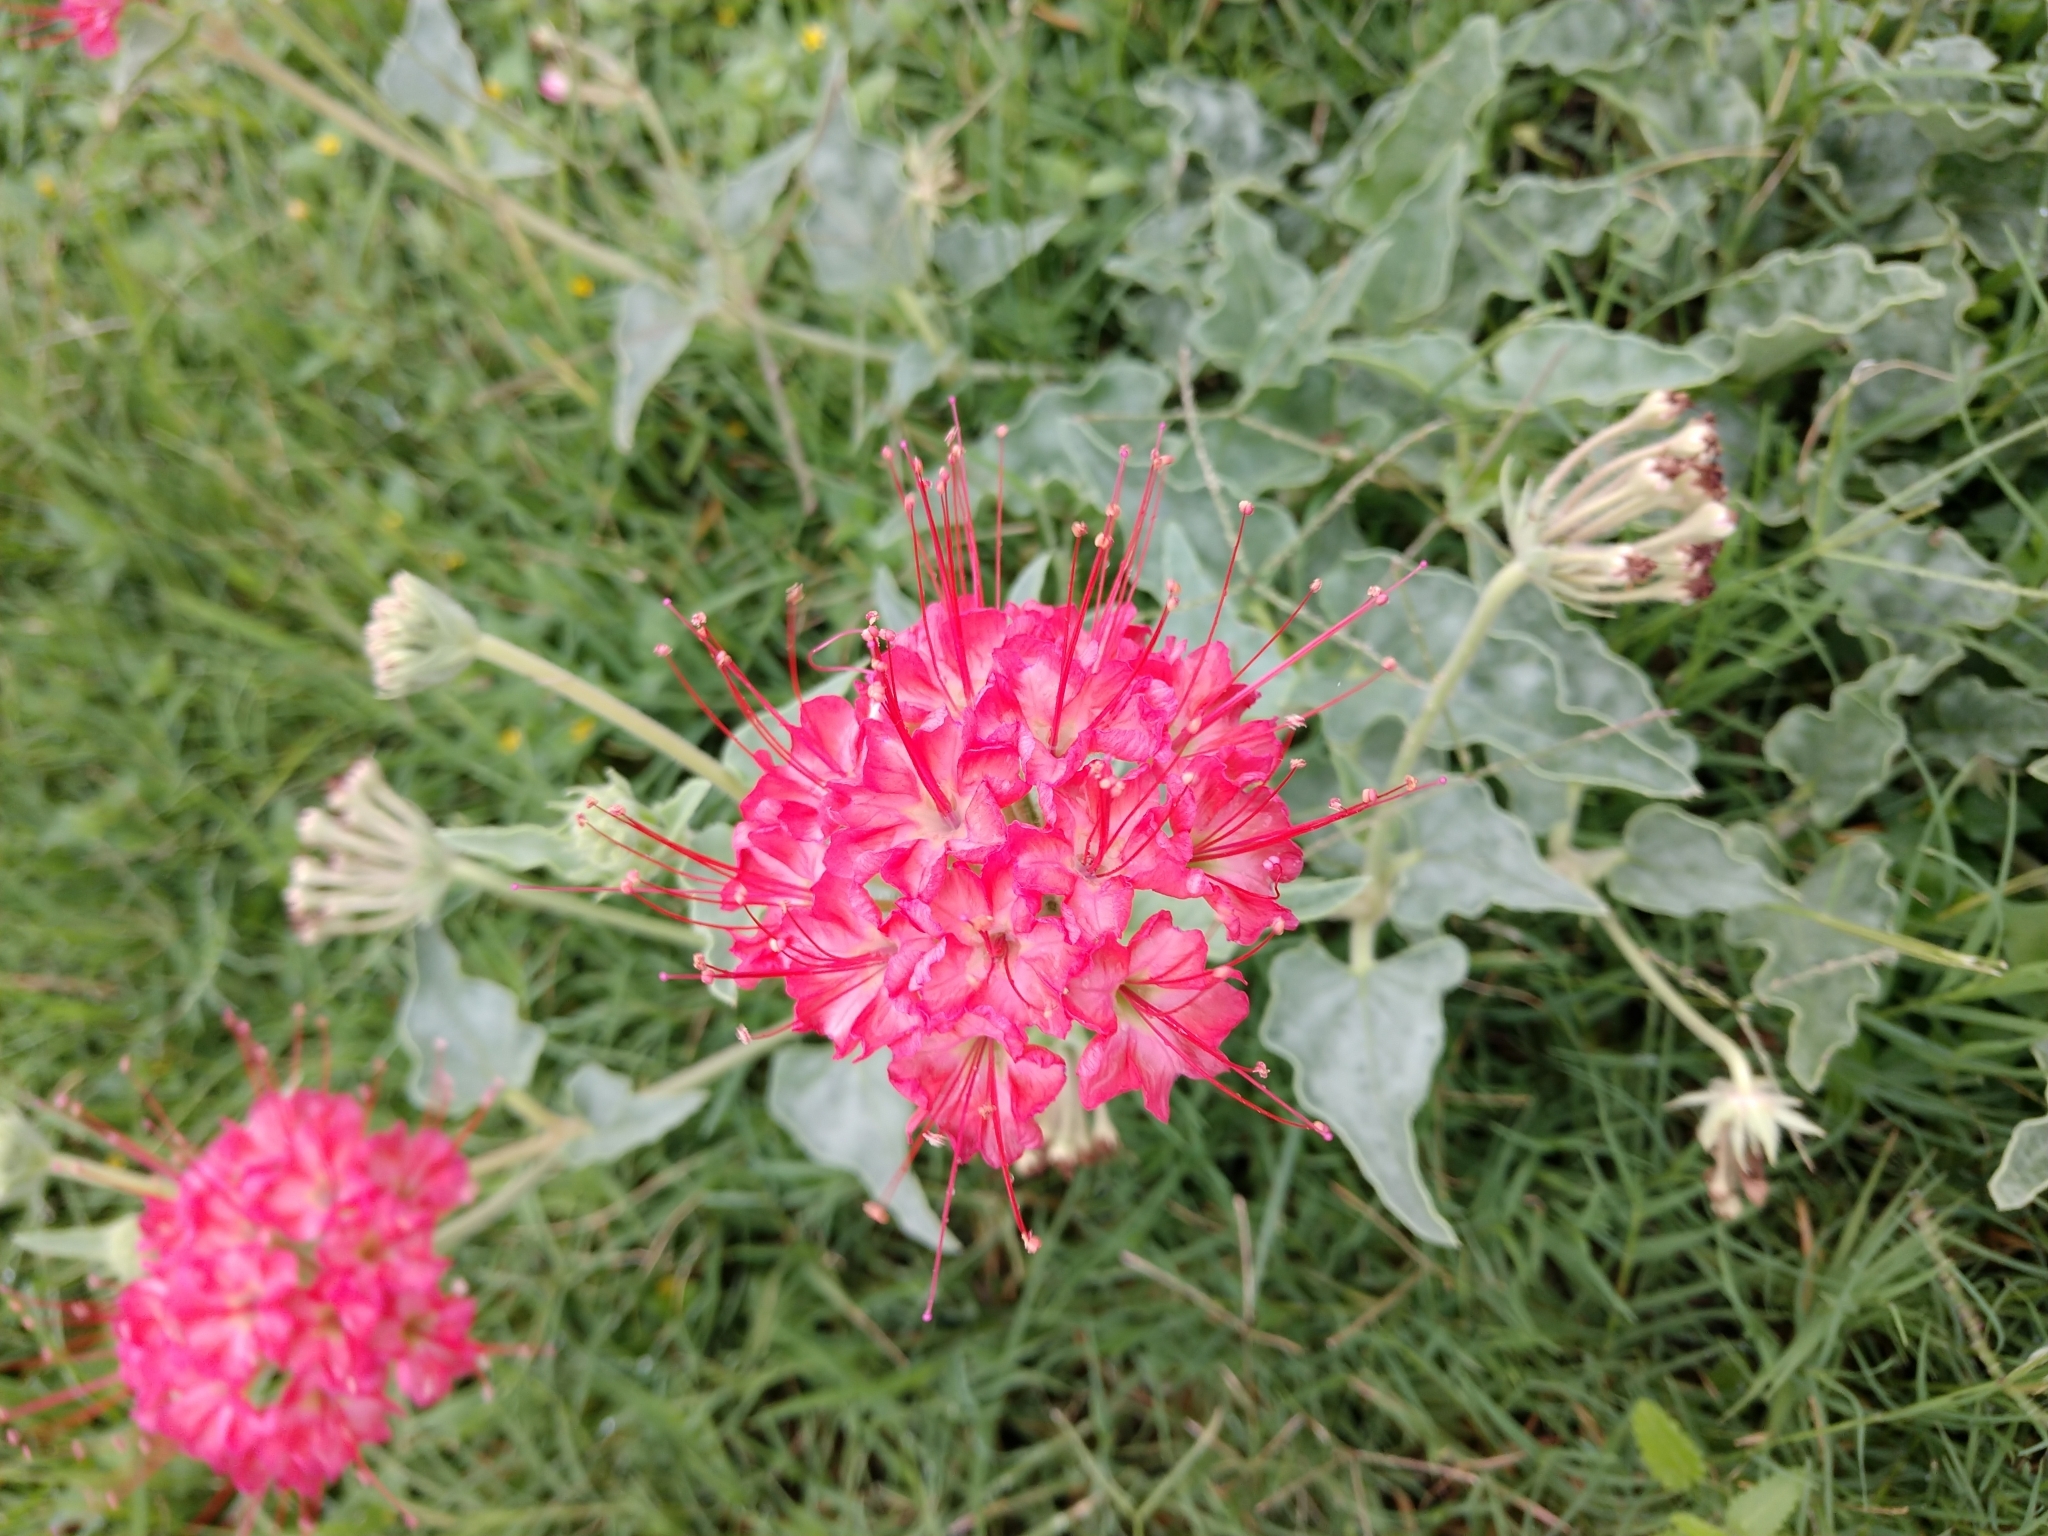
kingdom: Plantae
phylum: Tracheophyta
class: Magnoliopsida
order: Caryophyllales
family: Nyctaginaceae
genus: Nyctaginia
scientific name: Nyctaginia capitata
